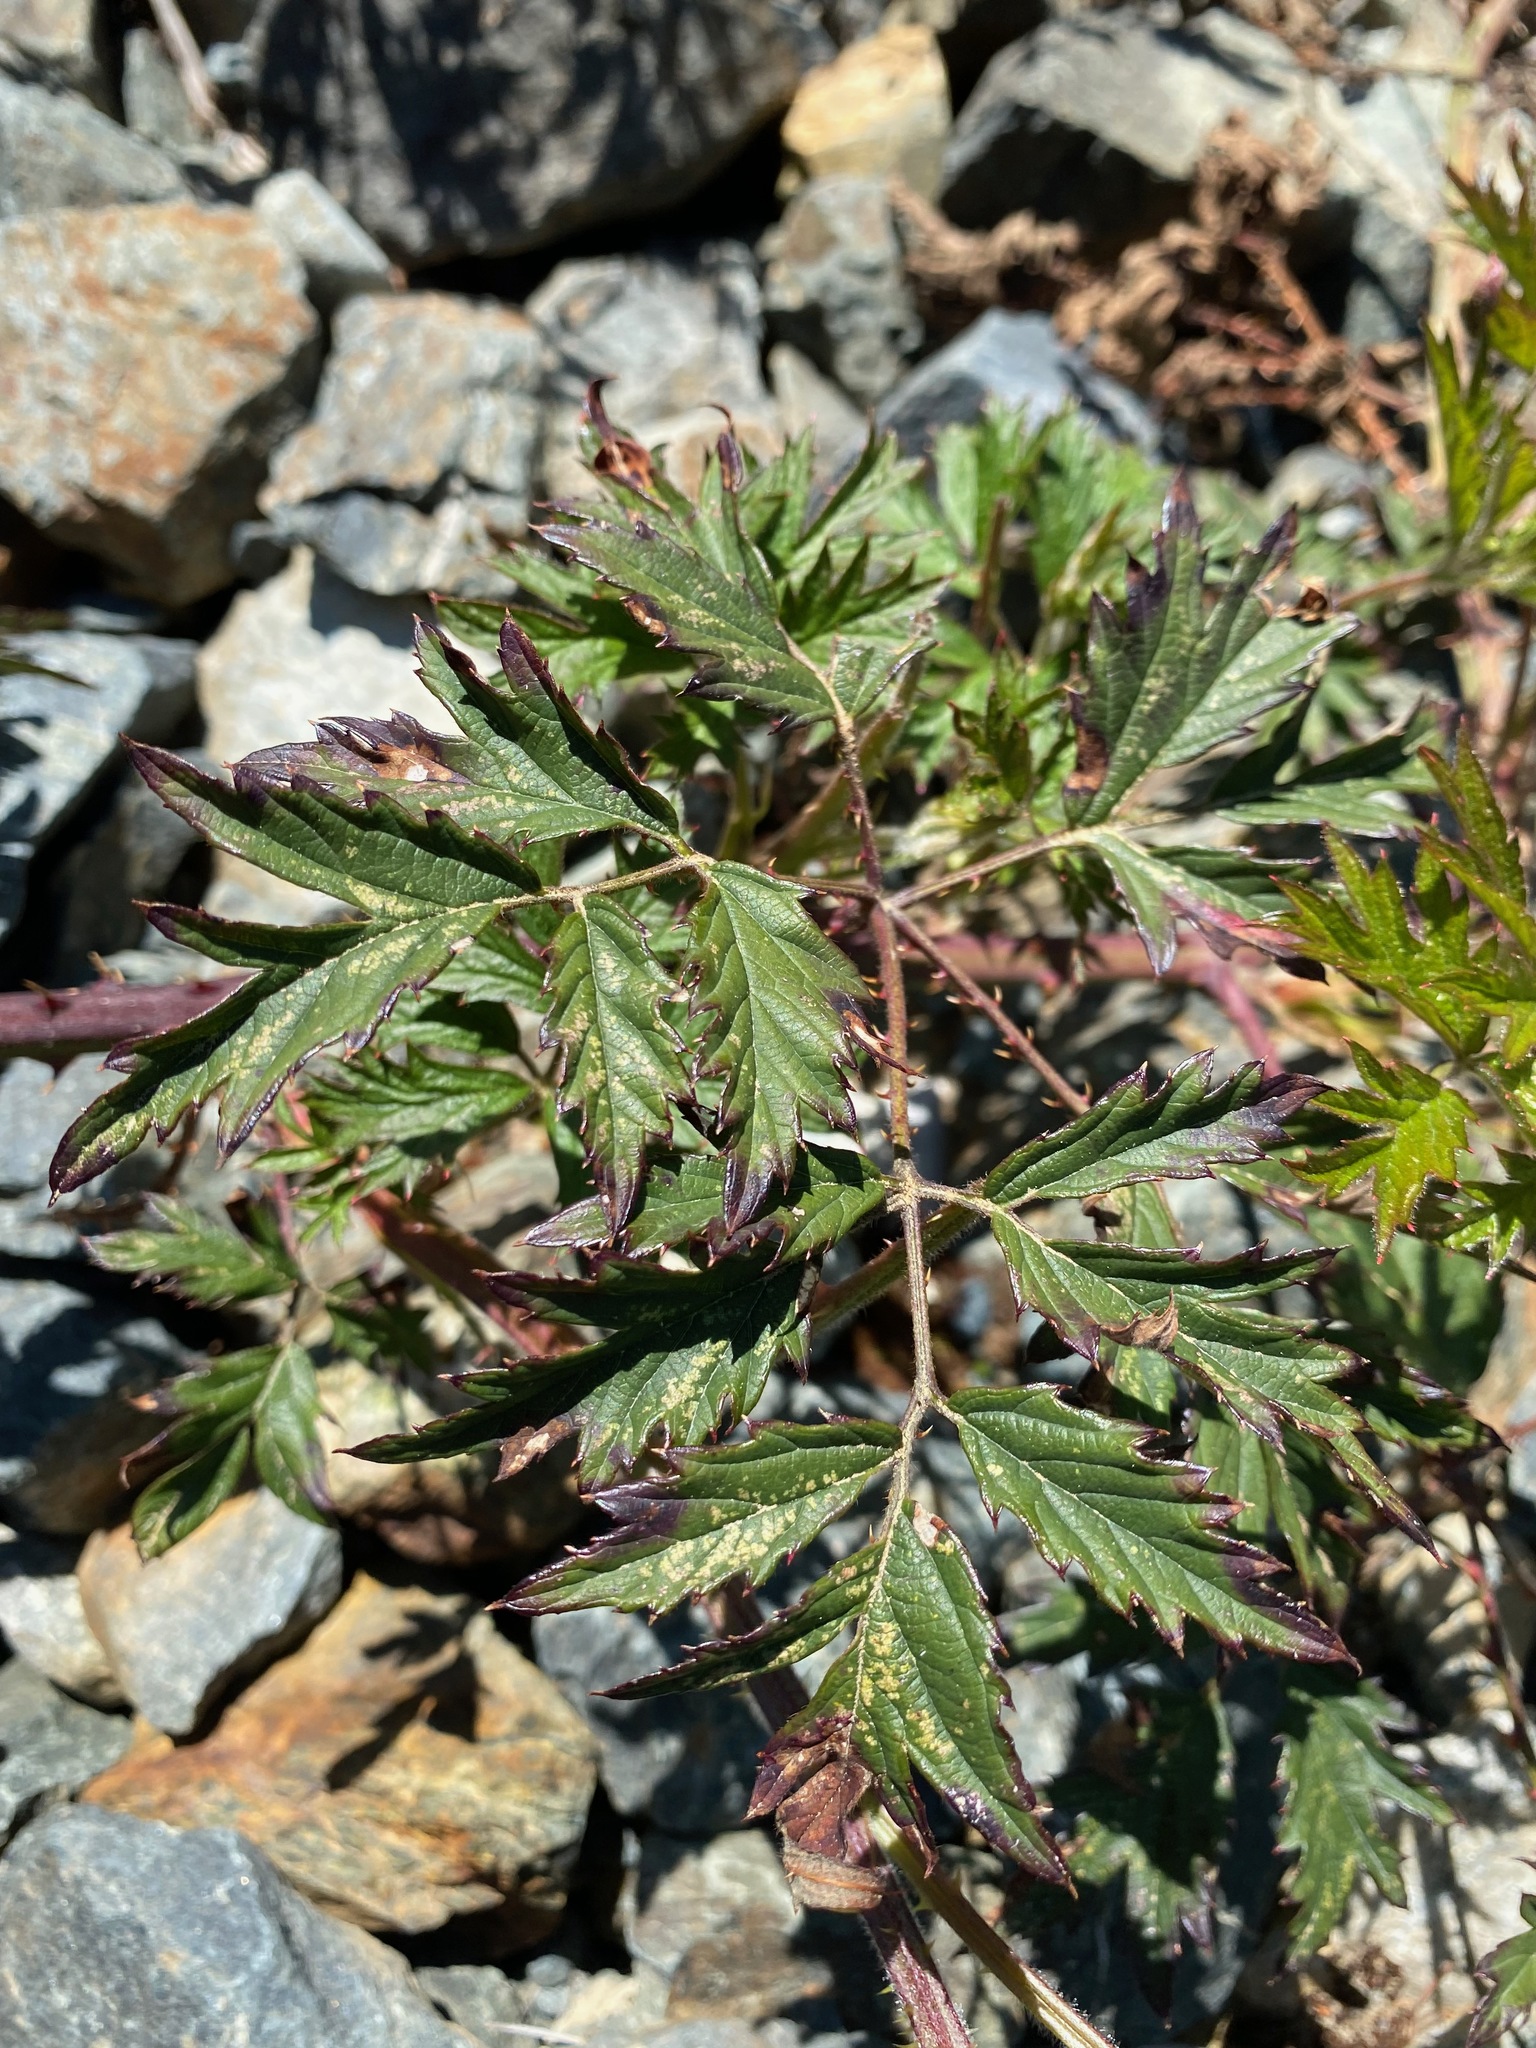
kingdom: Plantae
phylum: Tracheophyta
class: Magnoliopsida
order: Rosales
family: Rosaceae
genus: Rubus
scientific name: Rubus laciniatus
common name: Evergreen blackberry
